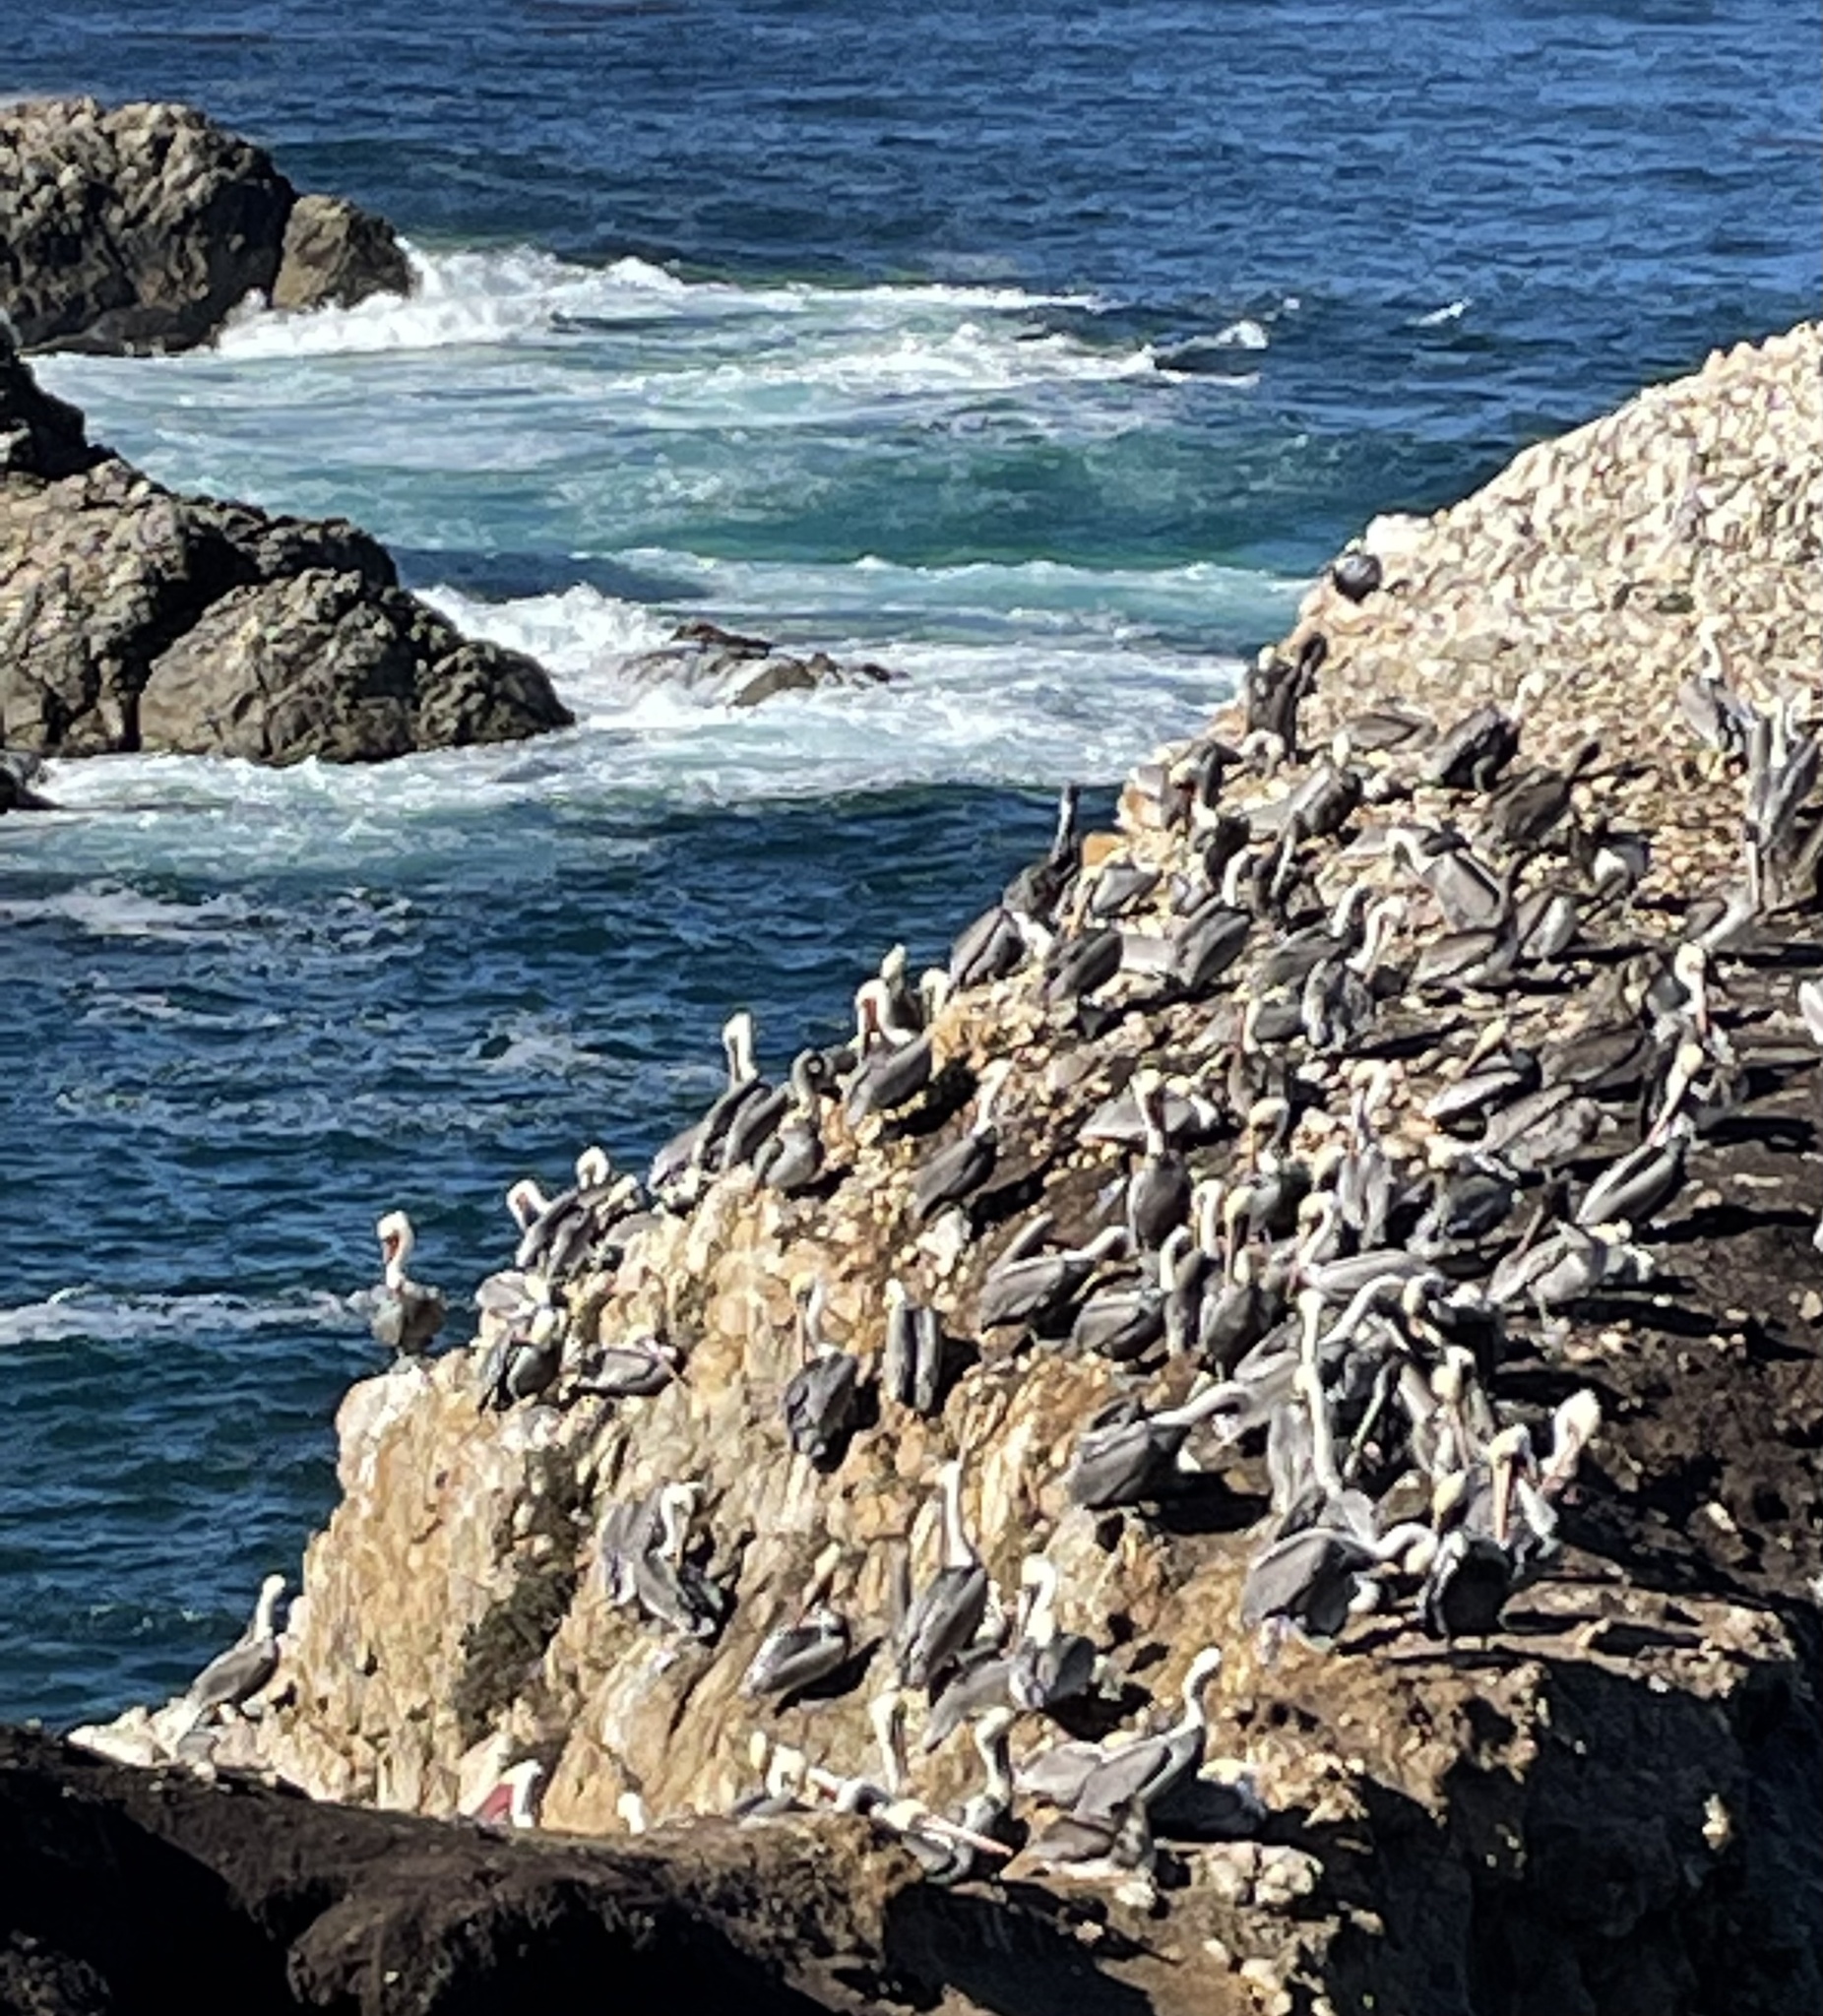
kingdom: Animalia
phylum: Chordata
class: Aves
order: Pelecaniformes
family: Pelecanidae
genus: Pelecanus
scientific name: Pelecanus occidentalis
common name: Brown pelican
